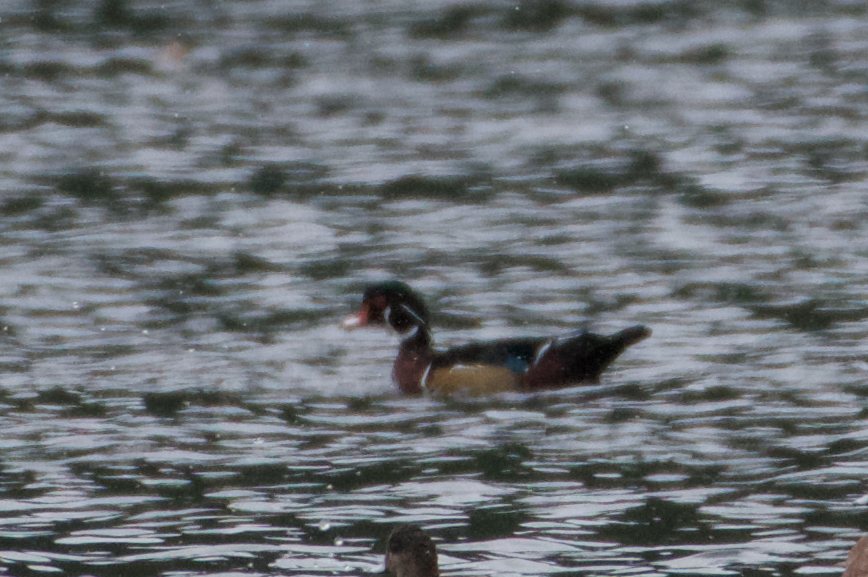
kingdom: Animalia
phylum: Chordata
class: Aves
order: Anseriformes
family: Anatidae
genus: Aix
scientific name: Aix sponsa
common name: Wood duck
